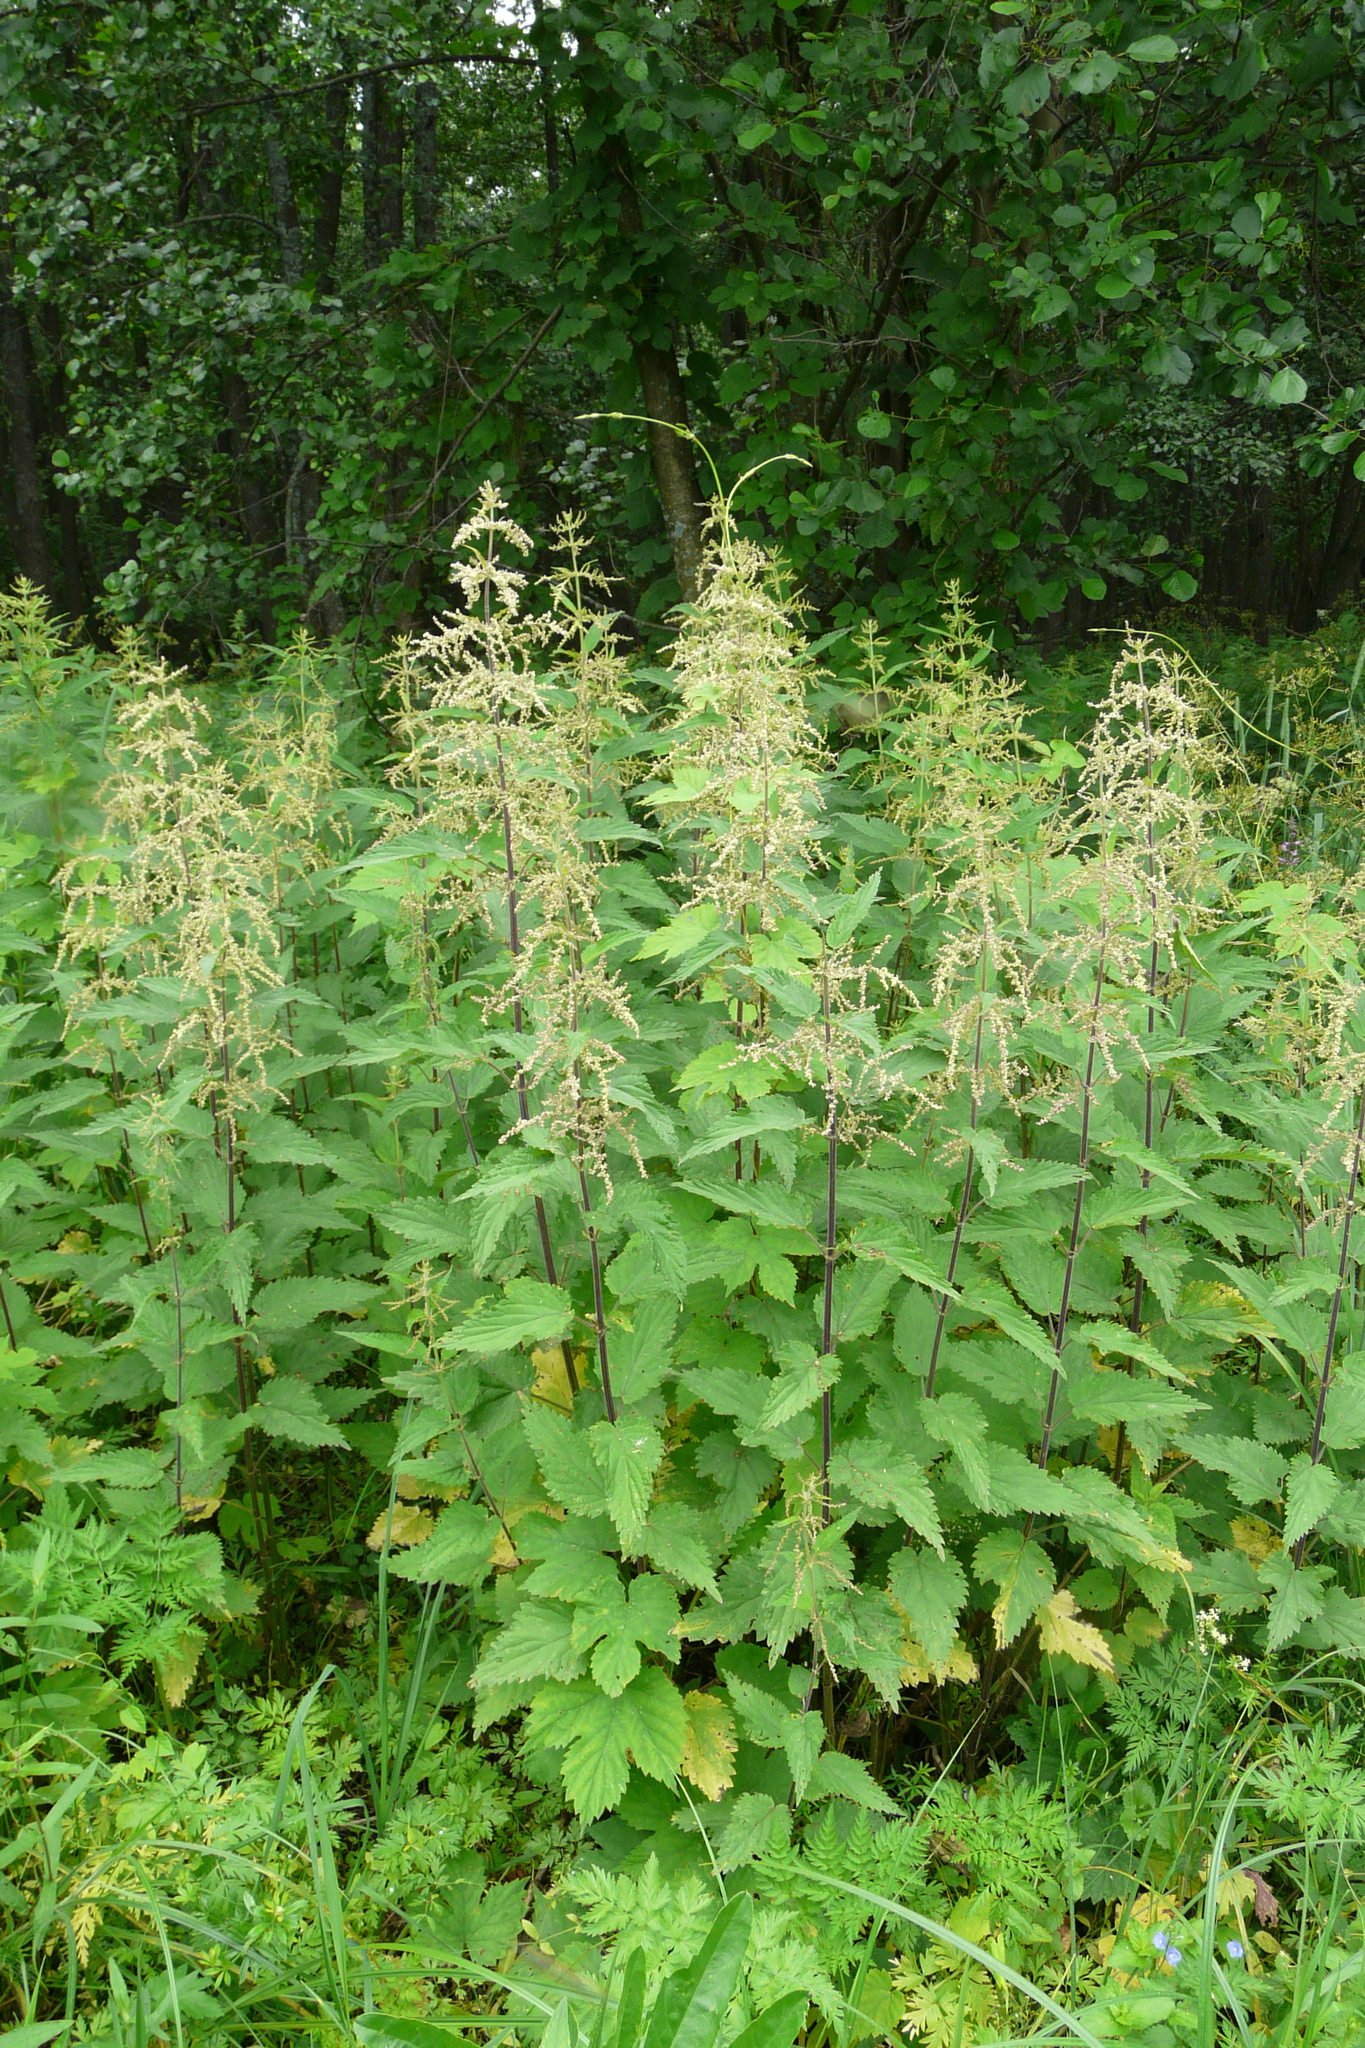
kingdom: Plantae
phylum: Tracheophyta
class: Magnoliopsida
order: Rosales
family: Urticaceae
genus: Urtica
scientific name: Urtica dioica
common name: Common nettle
